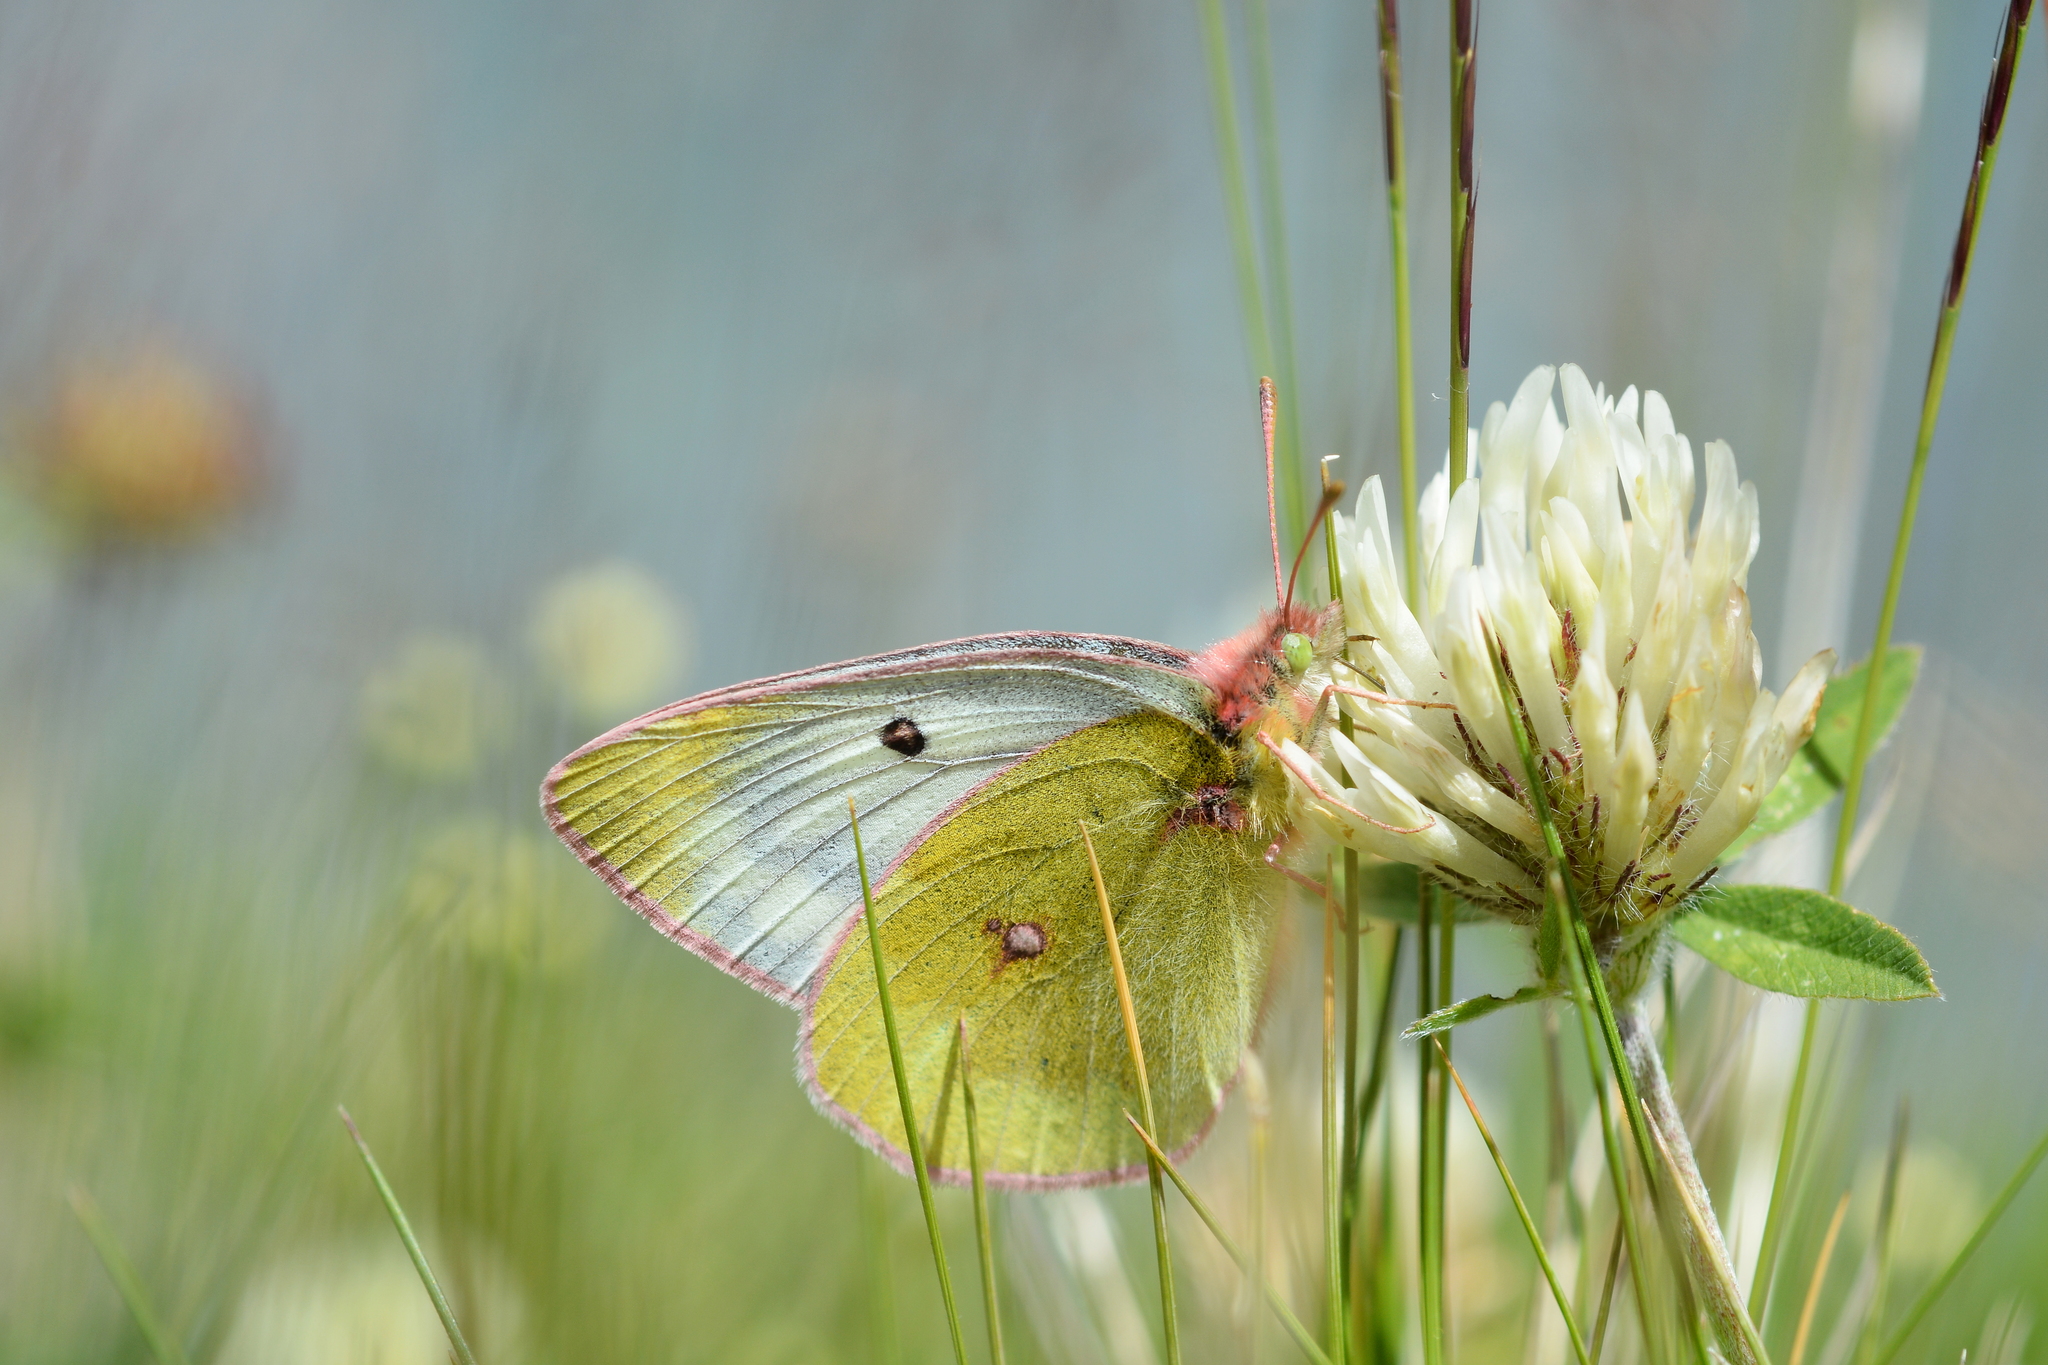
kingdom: Animalia
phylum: Arthropoda
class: Insecta
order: Lepidoptera
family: Pieridae
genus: Colias
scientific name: Colias phicomone
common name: Mountain clouded yellow
